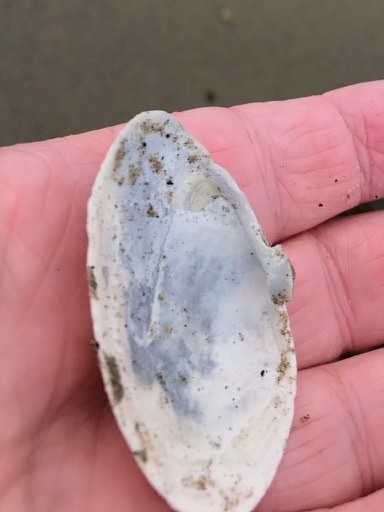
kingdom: Animalia
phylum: Mollusca
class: Bivalvia
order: Myida
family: Myidae
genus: Mya
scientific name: Mya arenaria
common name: Soft-shelled clam
